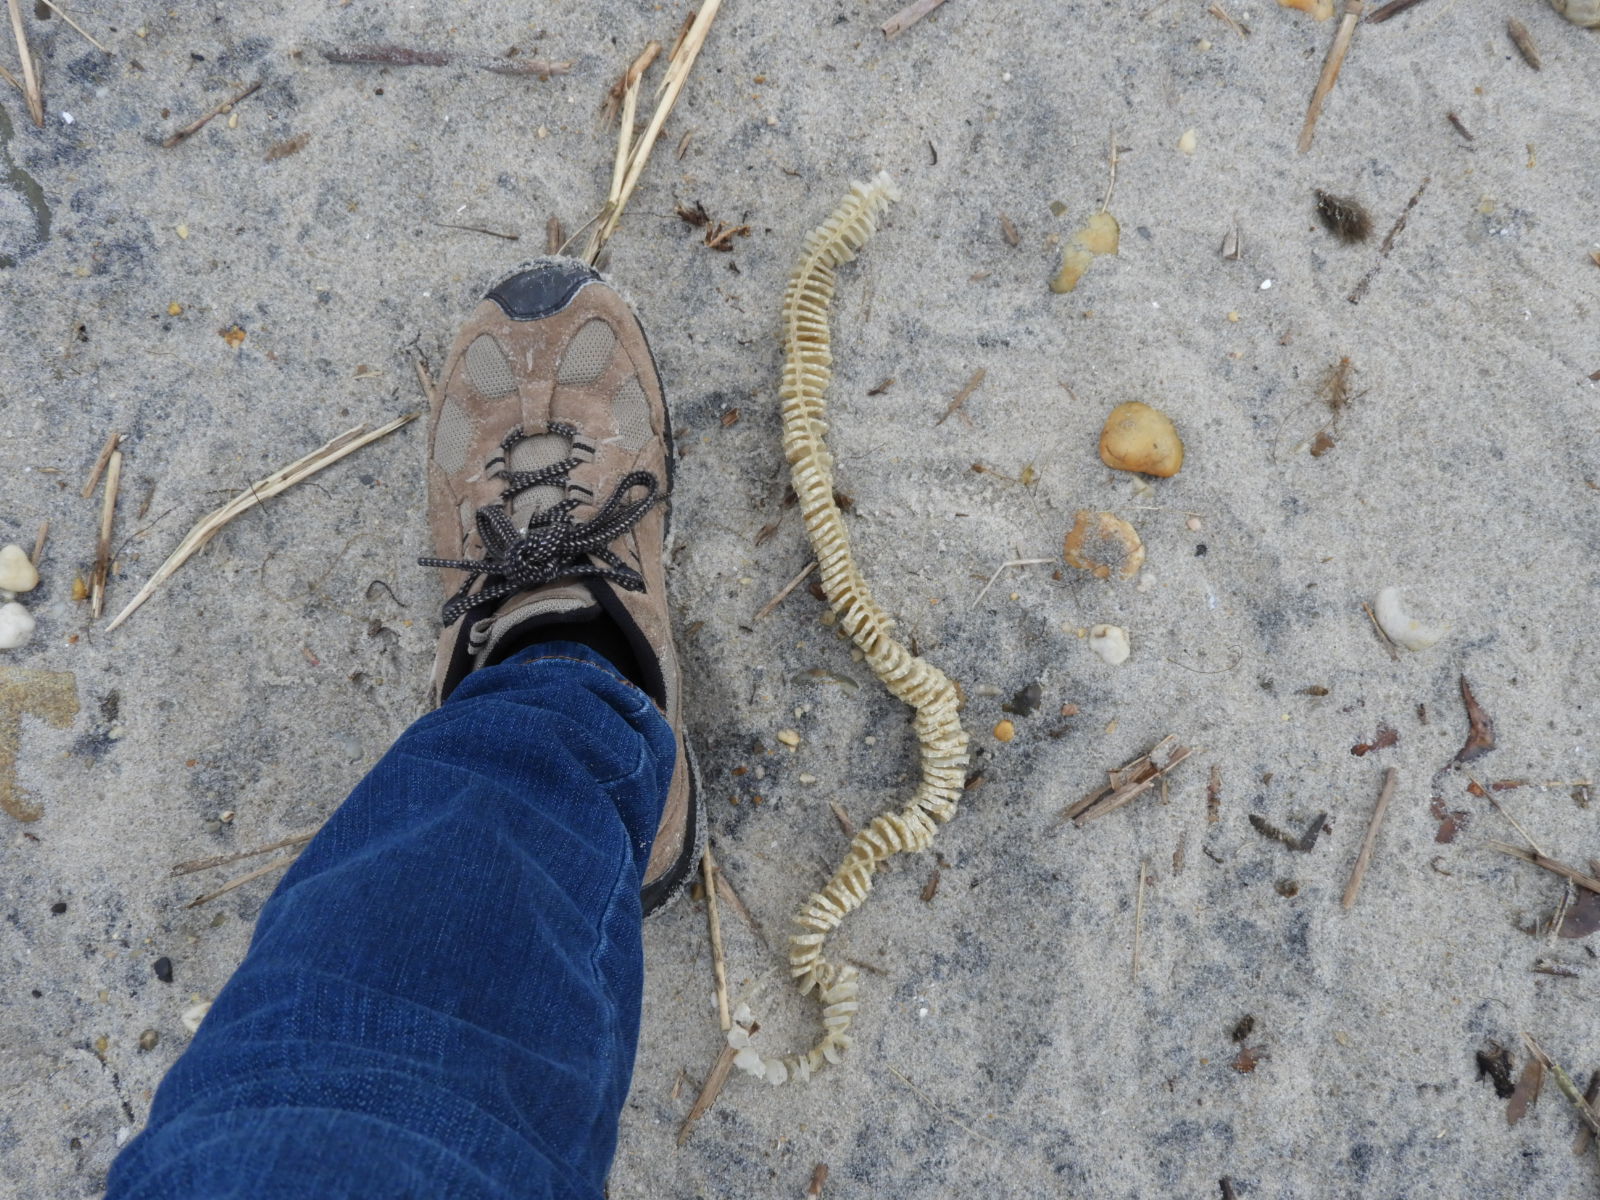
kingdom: Animalia
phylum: Mollusca
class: Gastropoda
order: Neogastropoda
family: Busyconidae
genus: Busycon
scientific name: Busycon carica
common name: Knobbed whelk
